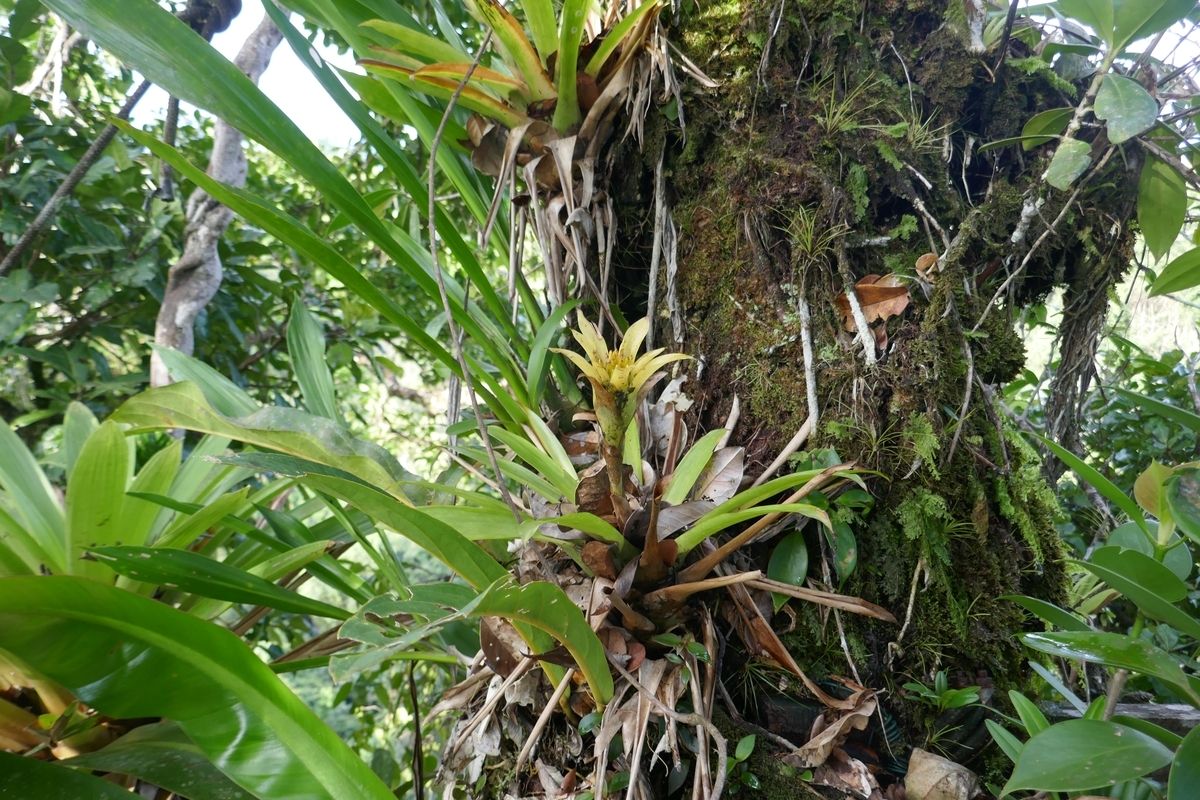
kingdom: Plantae
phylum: Tracheophyta
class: Liliopsida
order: Poales
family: Bromeliaceae
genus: Guzmania
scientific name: Guzmania lingulata
